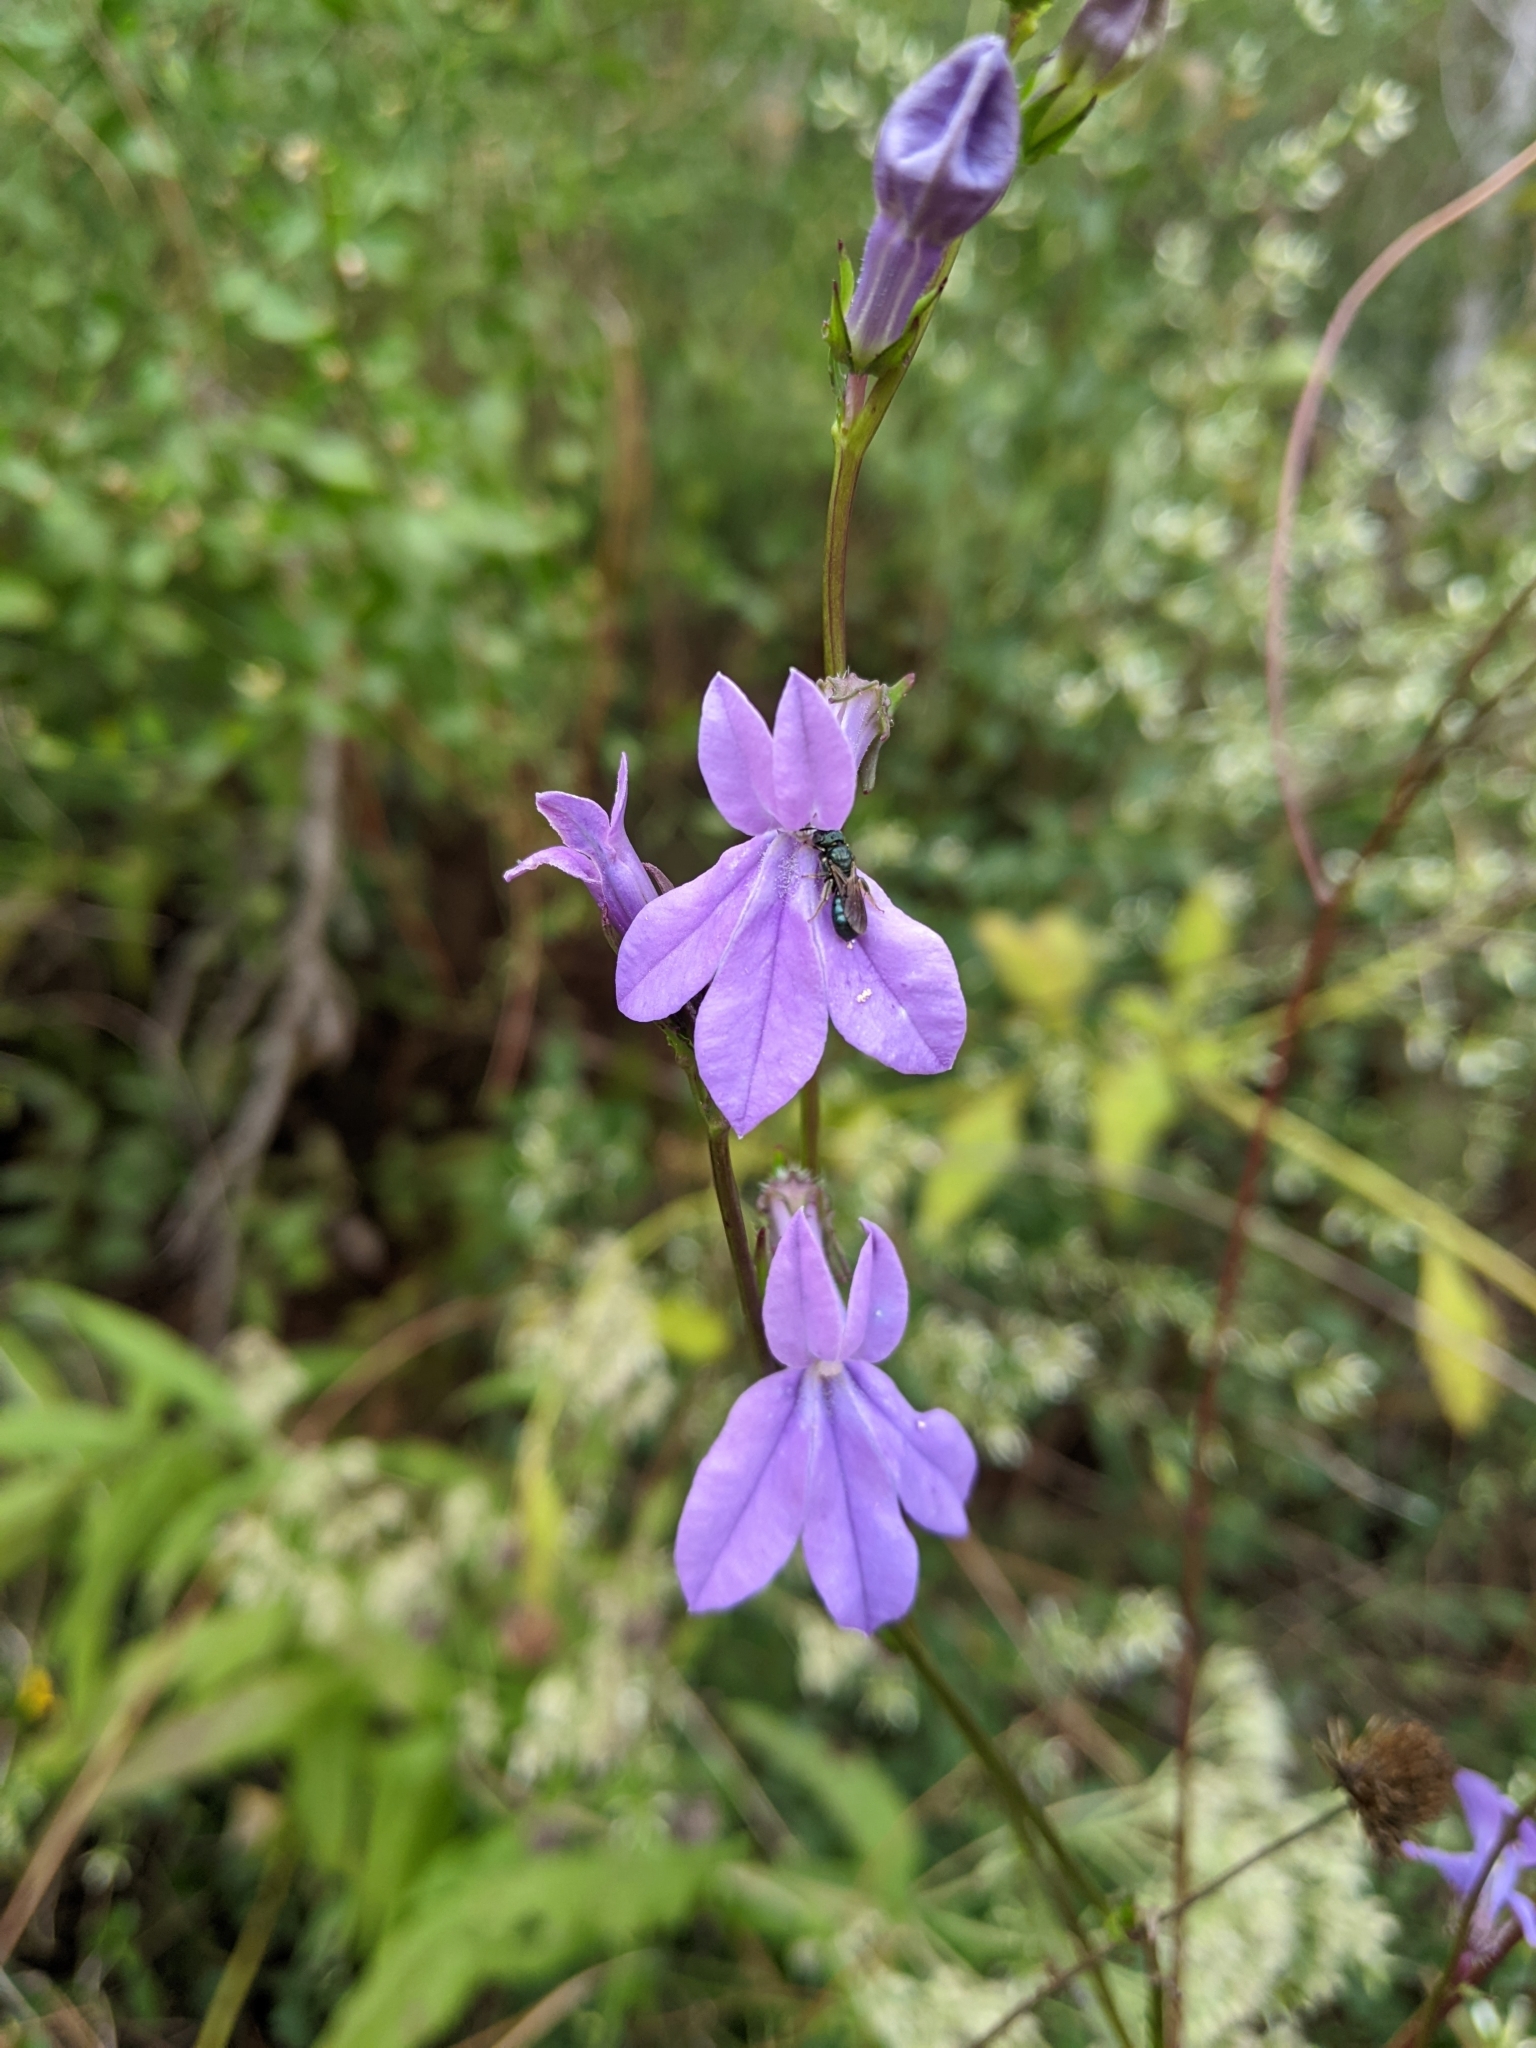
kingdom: Plantae
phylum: Tracheophyta
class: Magnoliopsida
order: Asterales
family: Campanulaceae
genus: Lobelia
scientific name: Lobelia glandulosa
